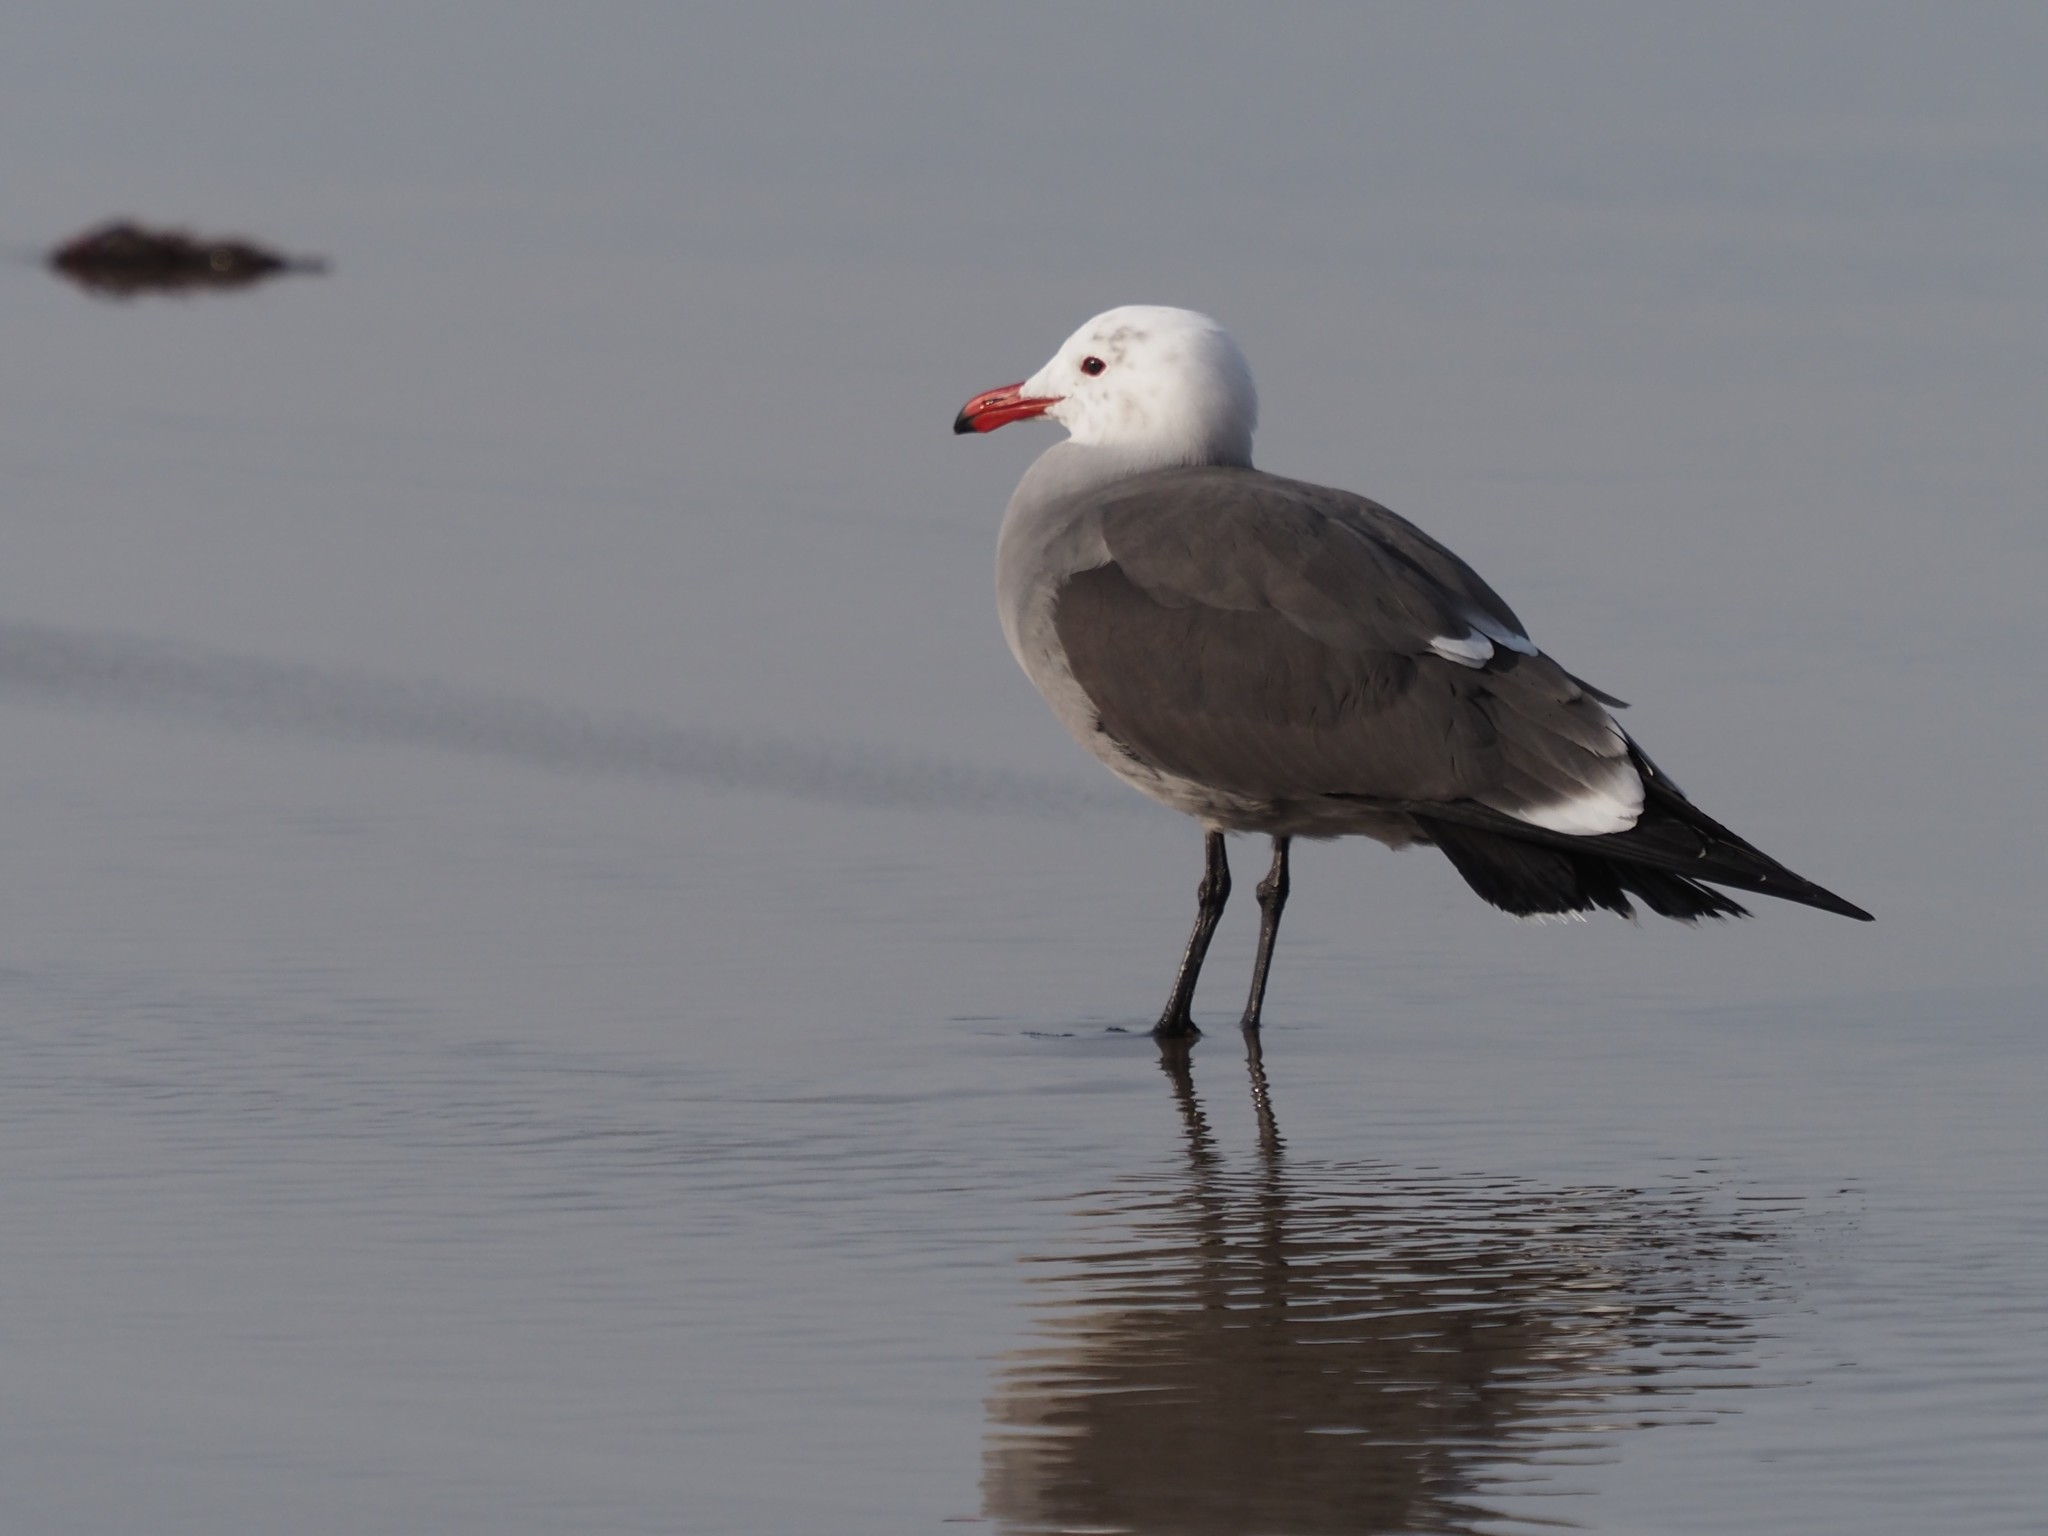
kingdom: Animalia
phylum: Chordata
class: Aves
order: Charadriiformes
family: Laridae
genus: Larus
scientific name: Larus heermanni
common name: Heermann's gull
